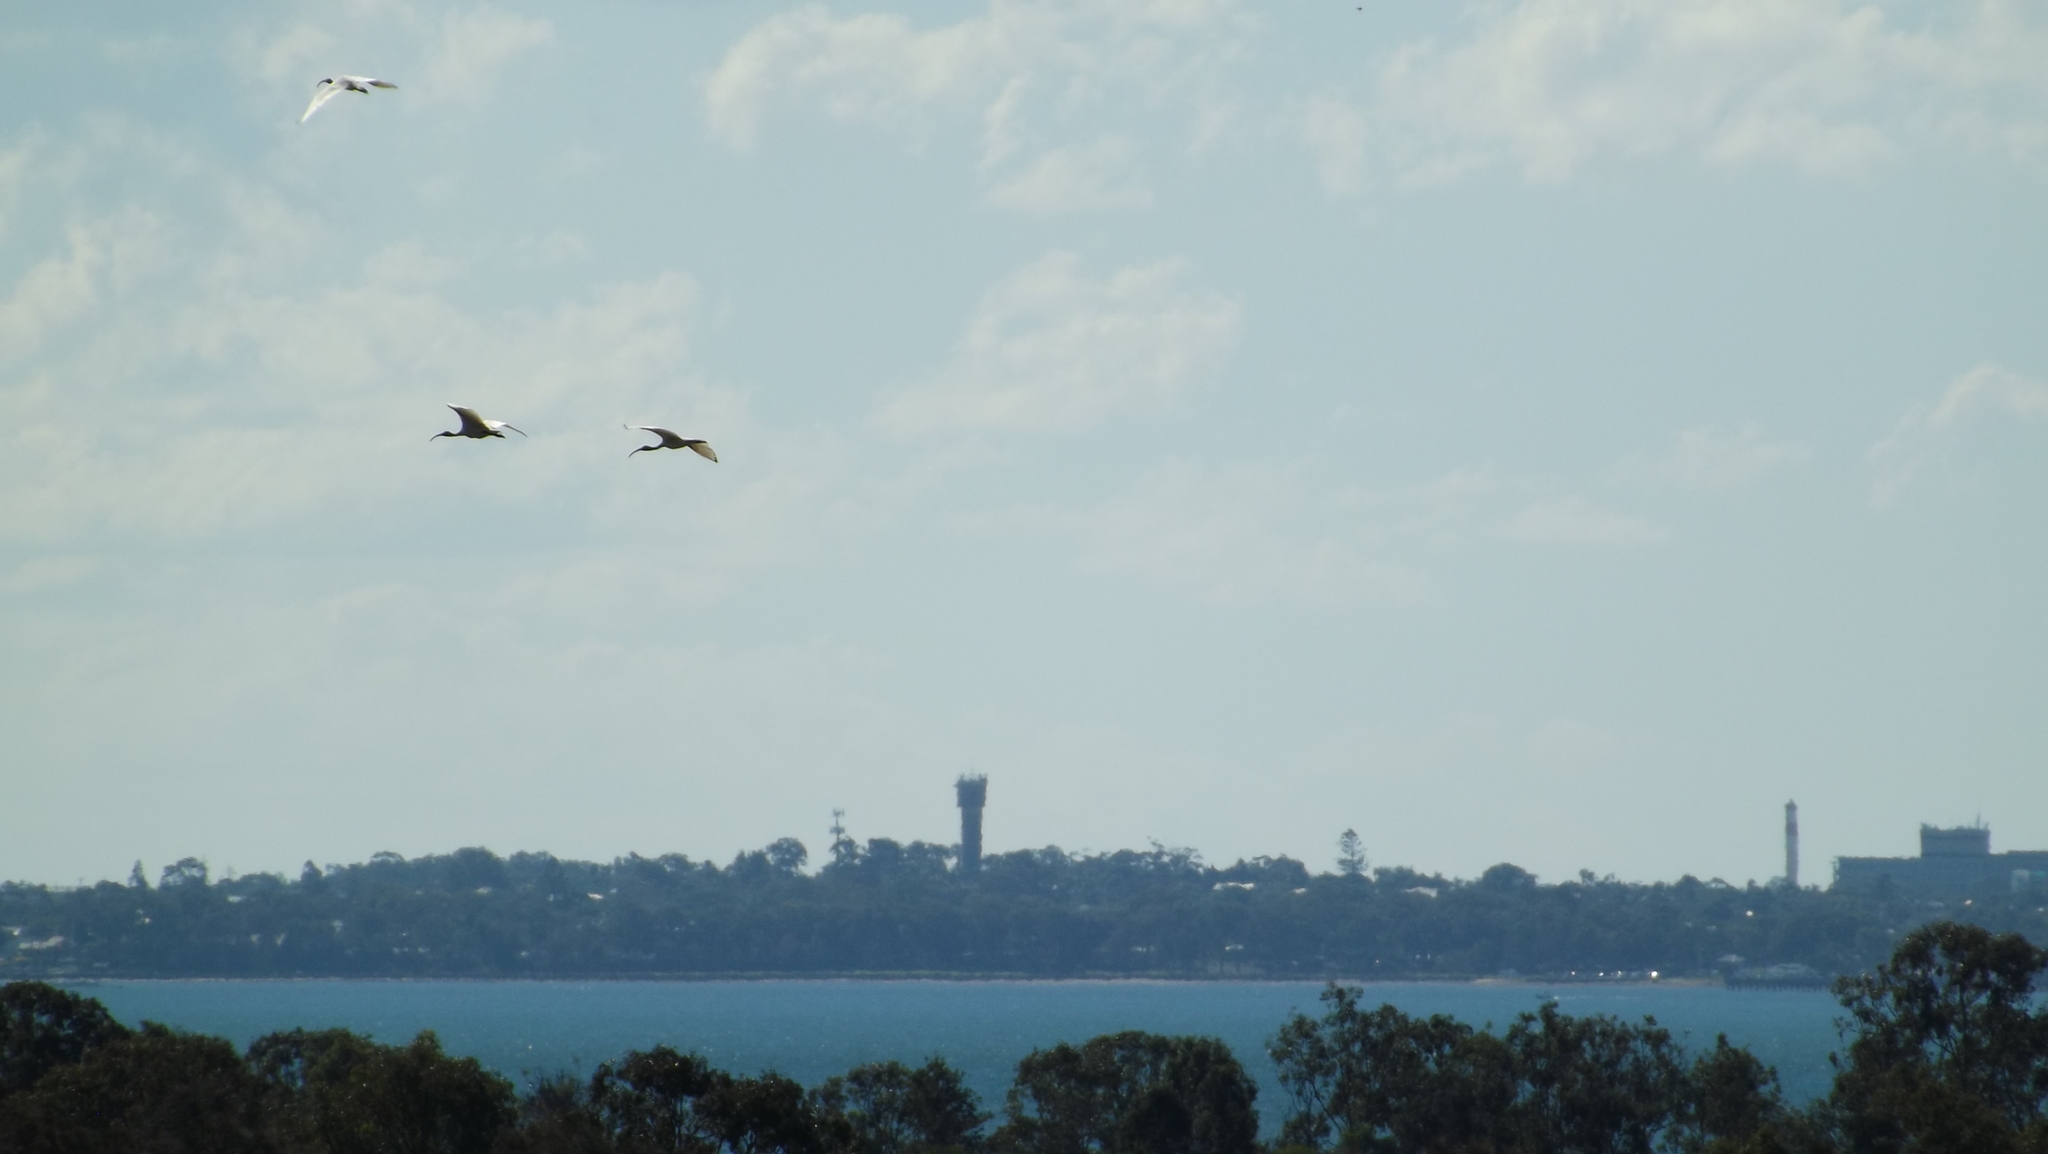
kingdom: Animalia
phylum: Chordata
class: Aves
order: Pelecaniformes
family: Threskiornithidae
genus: Threskiornis
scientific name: Threskiornis molucca
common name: Australian white ibis
